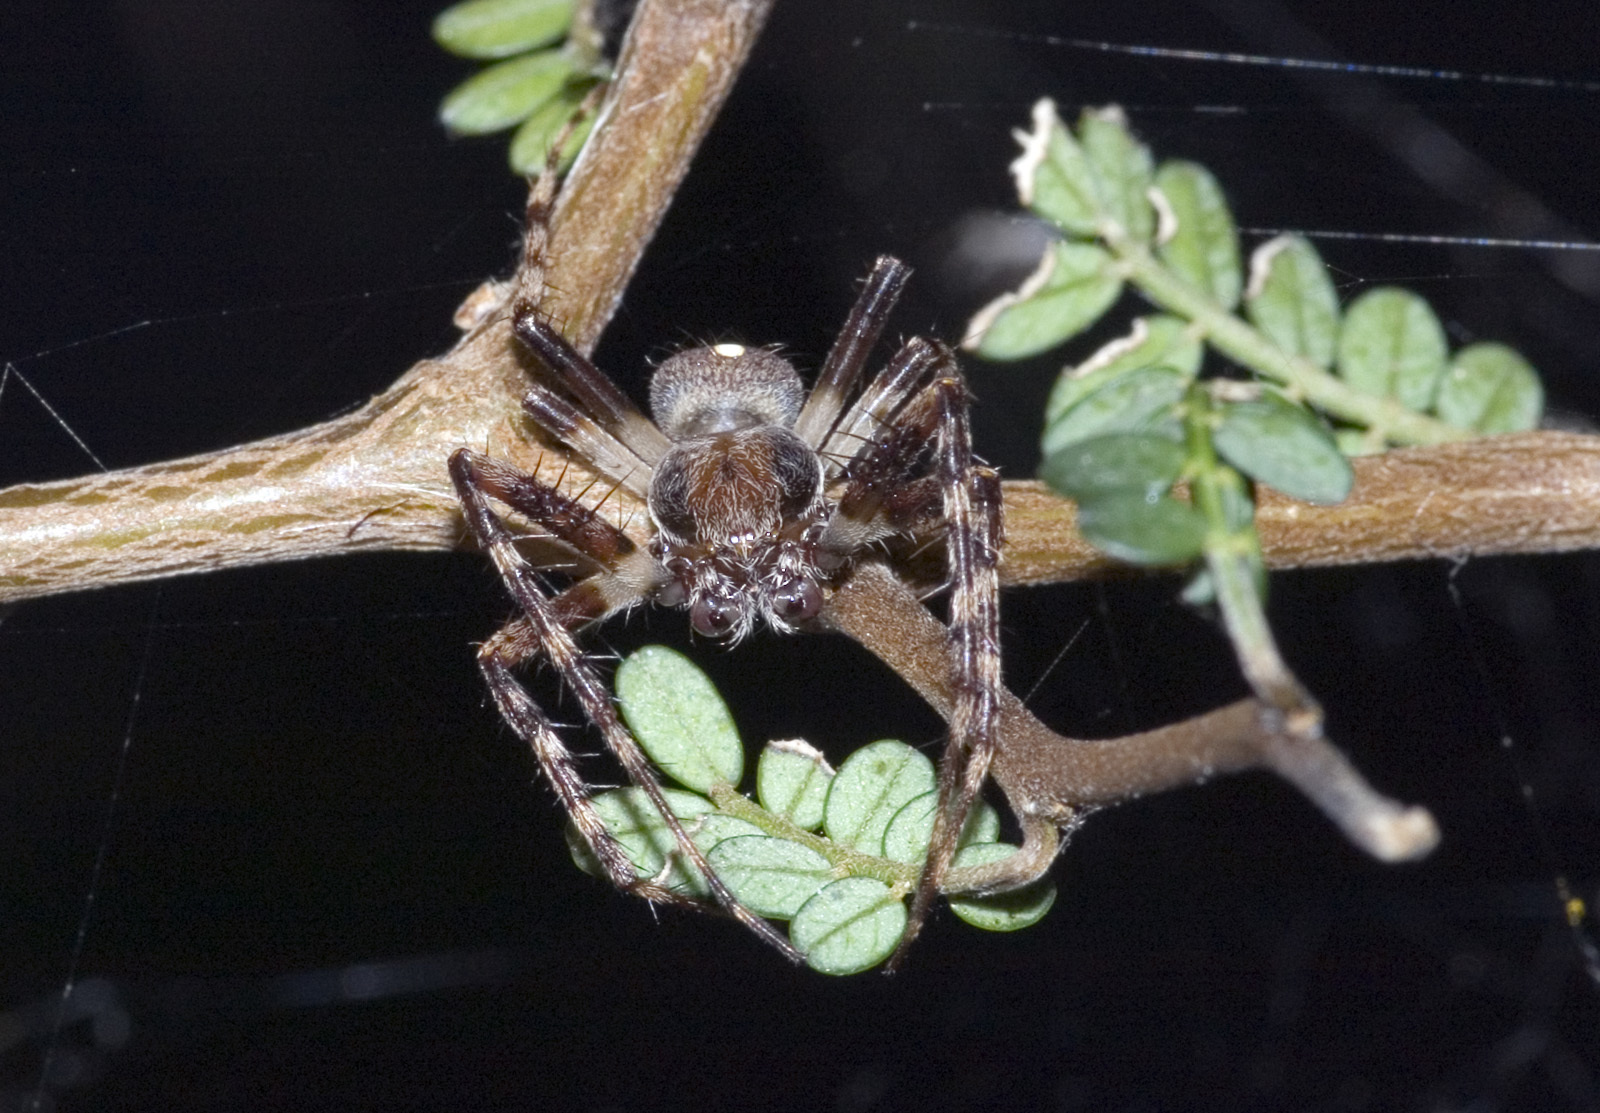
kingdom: Animalia
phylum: Arthropoda
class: Arachnida
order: Araneae
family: Araneidae
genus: Zealaranea
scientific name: Zealaranea trinotata
